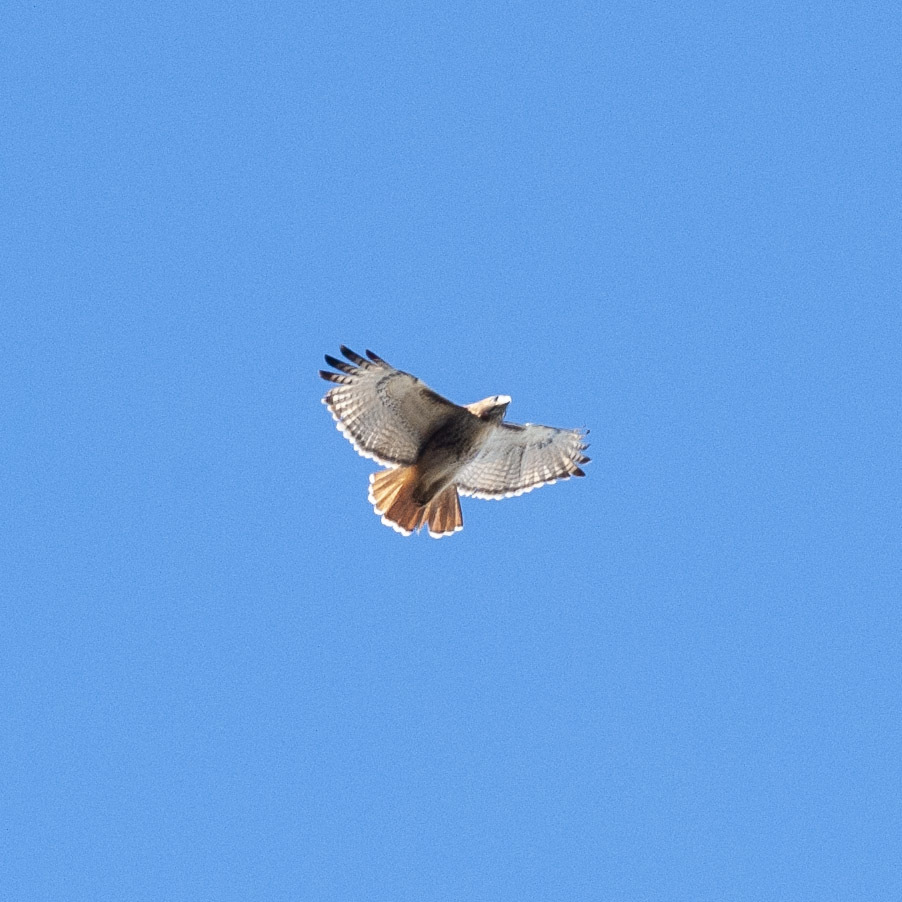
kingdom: Animalia
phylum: Chordata
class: Aves
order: Accipitriformes
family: Accipitridae
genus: Buteo
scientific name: Buteo jamaicensis
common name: Red-tailed hawk
